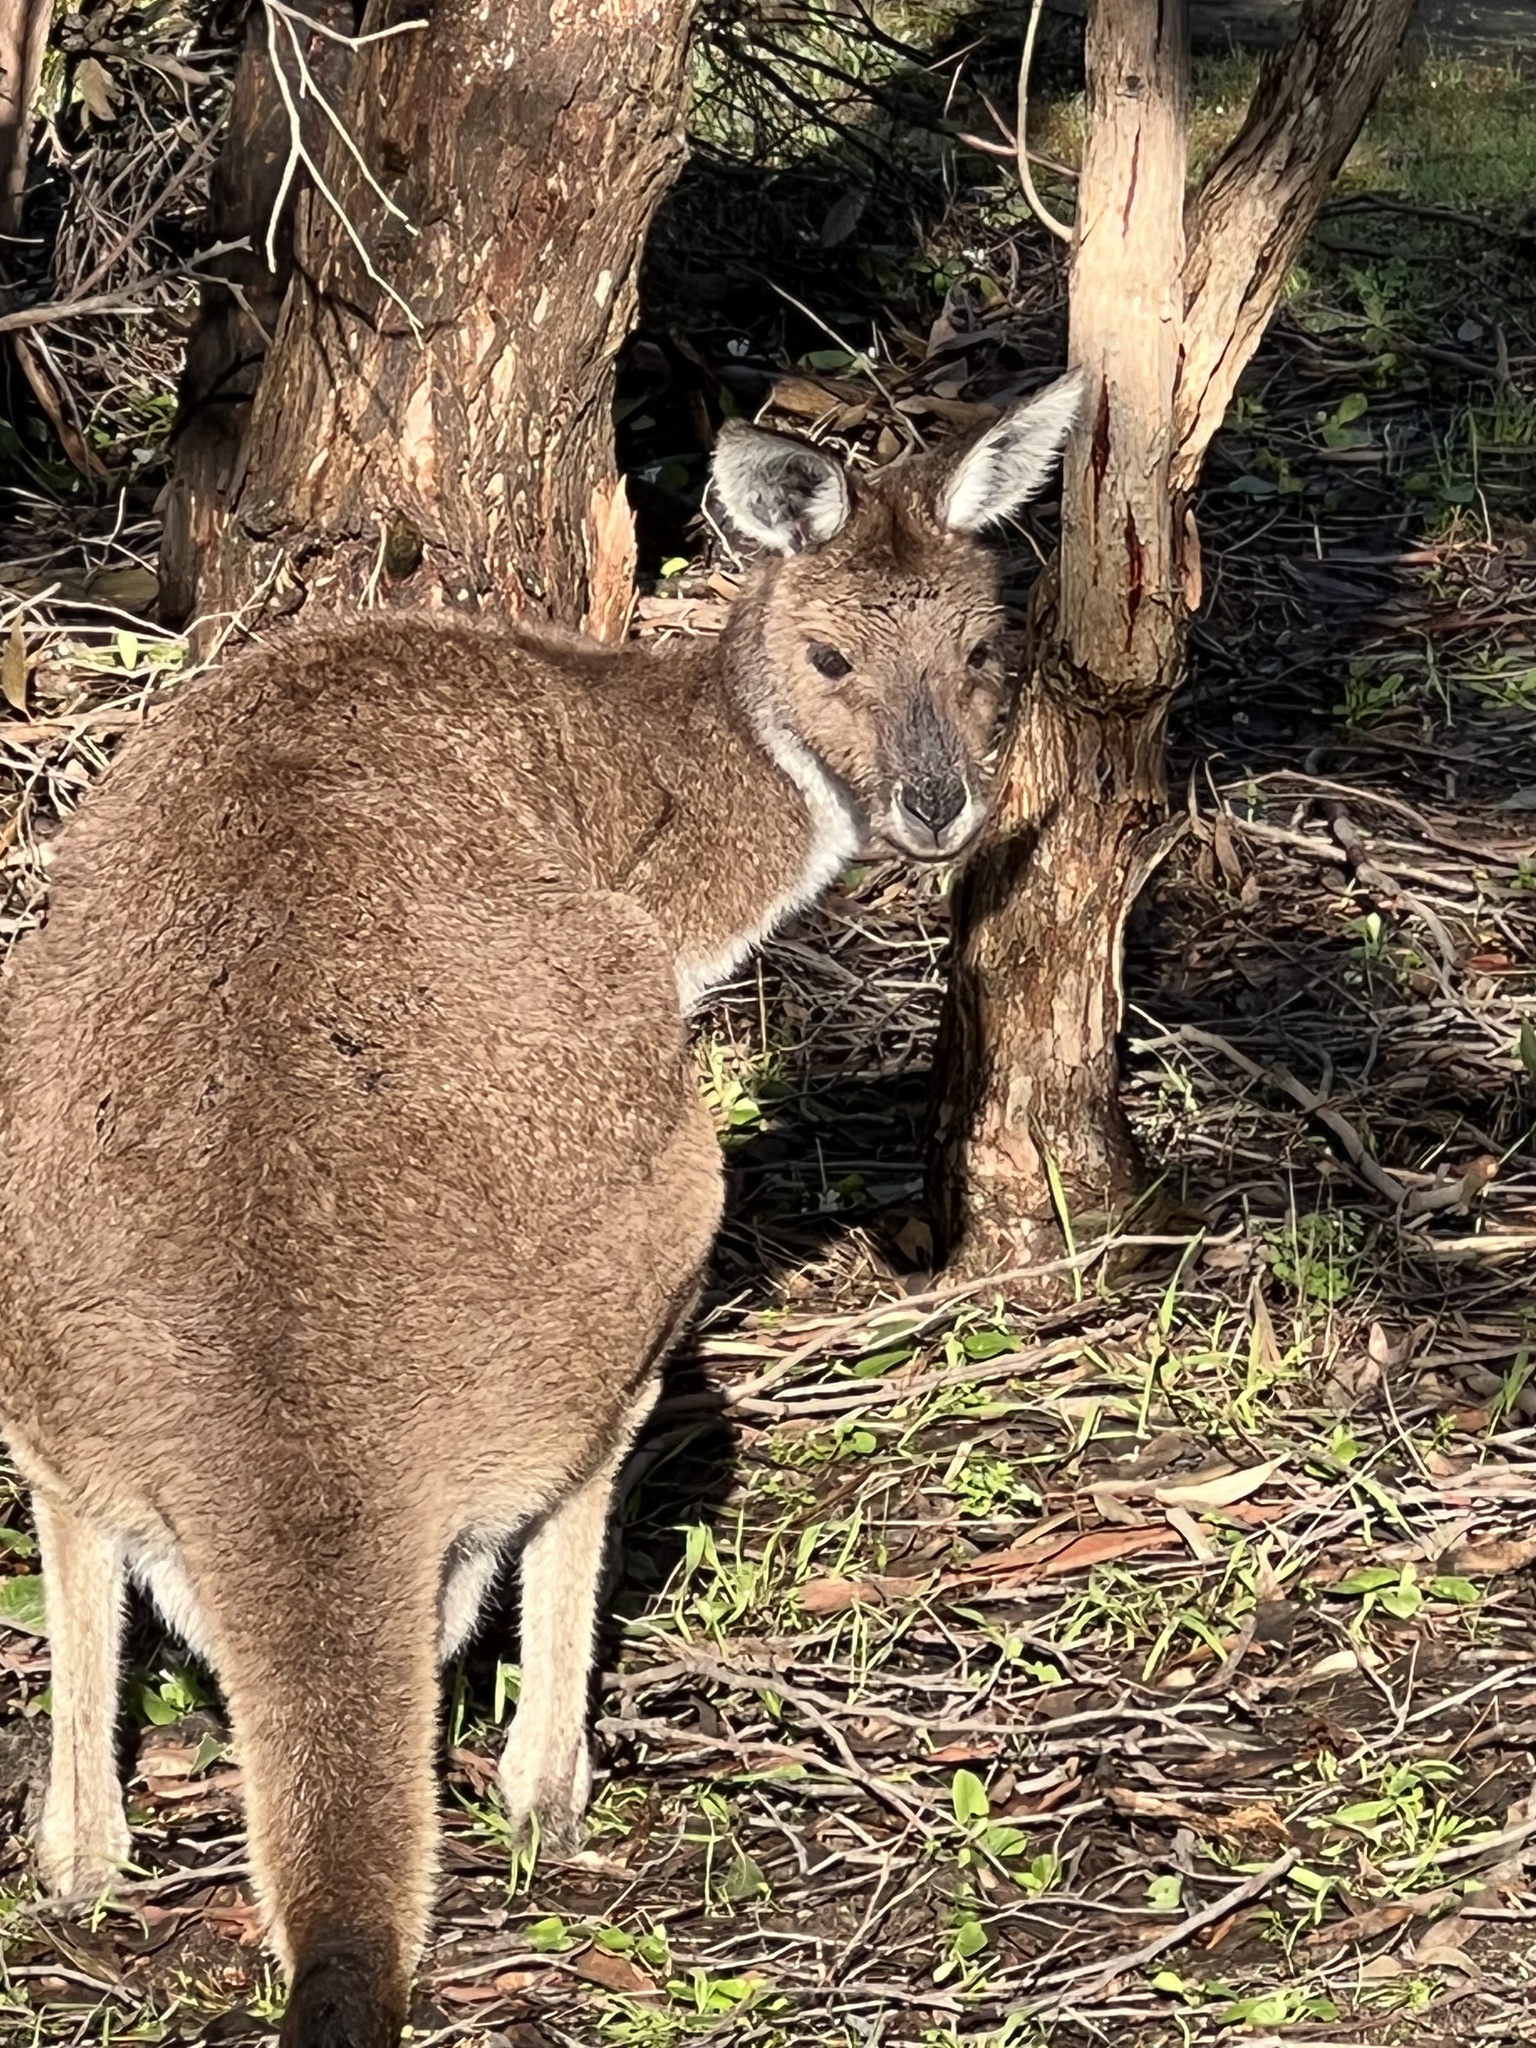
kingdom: Animalia
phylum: Chordata
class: Mammalia
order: Diprotodontia
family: Macropodidae
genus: Macropus
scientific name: Macropus fuliginosus
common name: Western grey kangaroo
